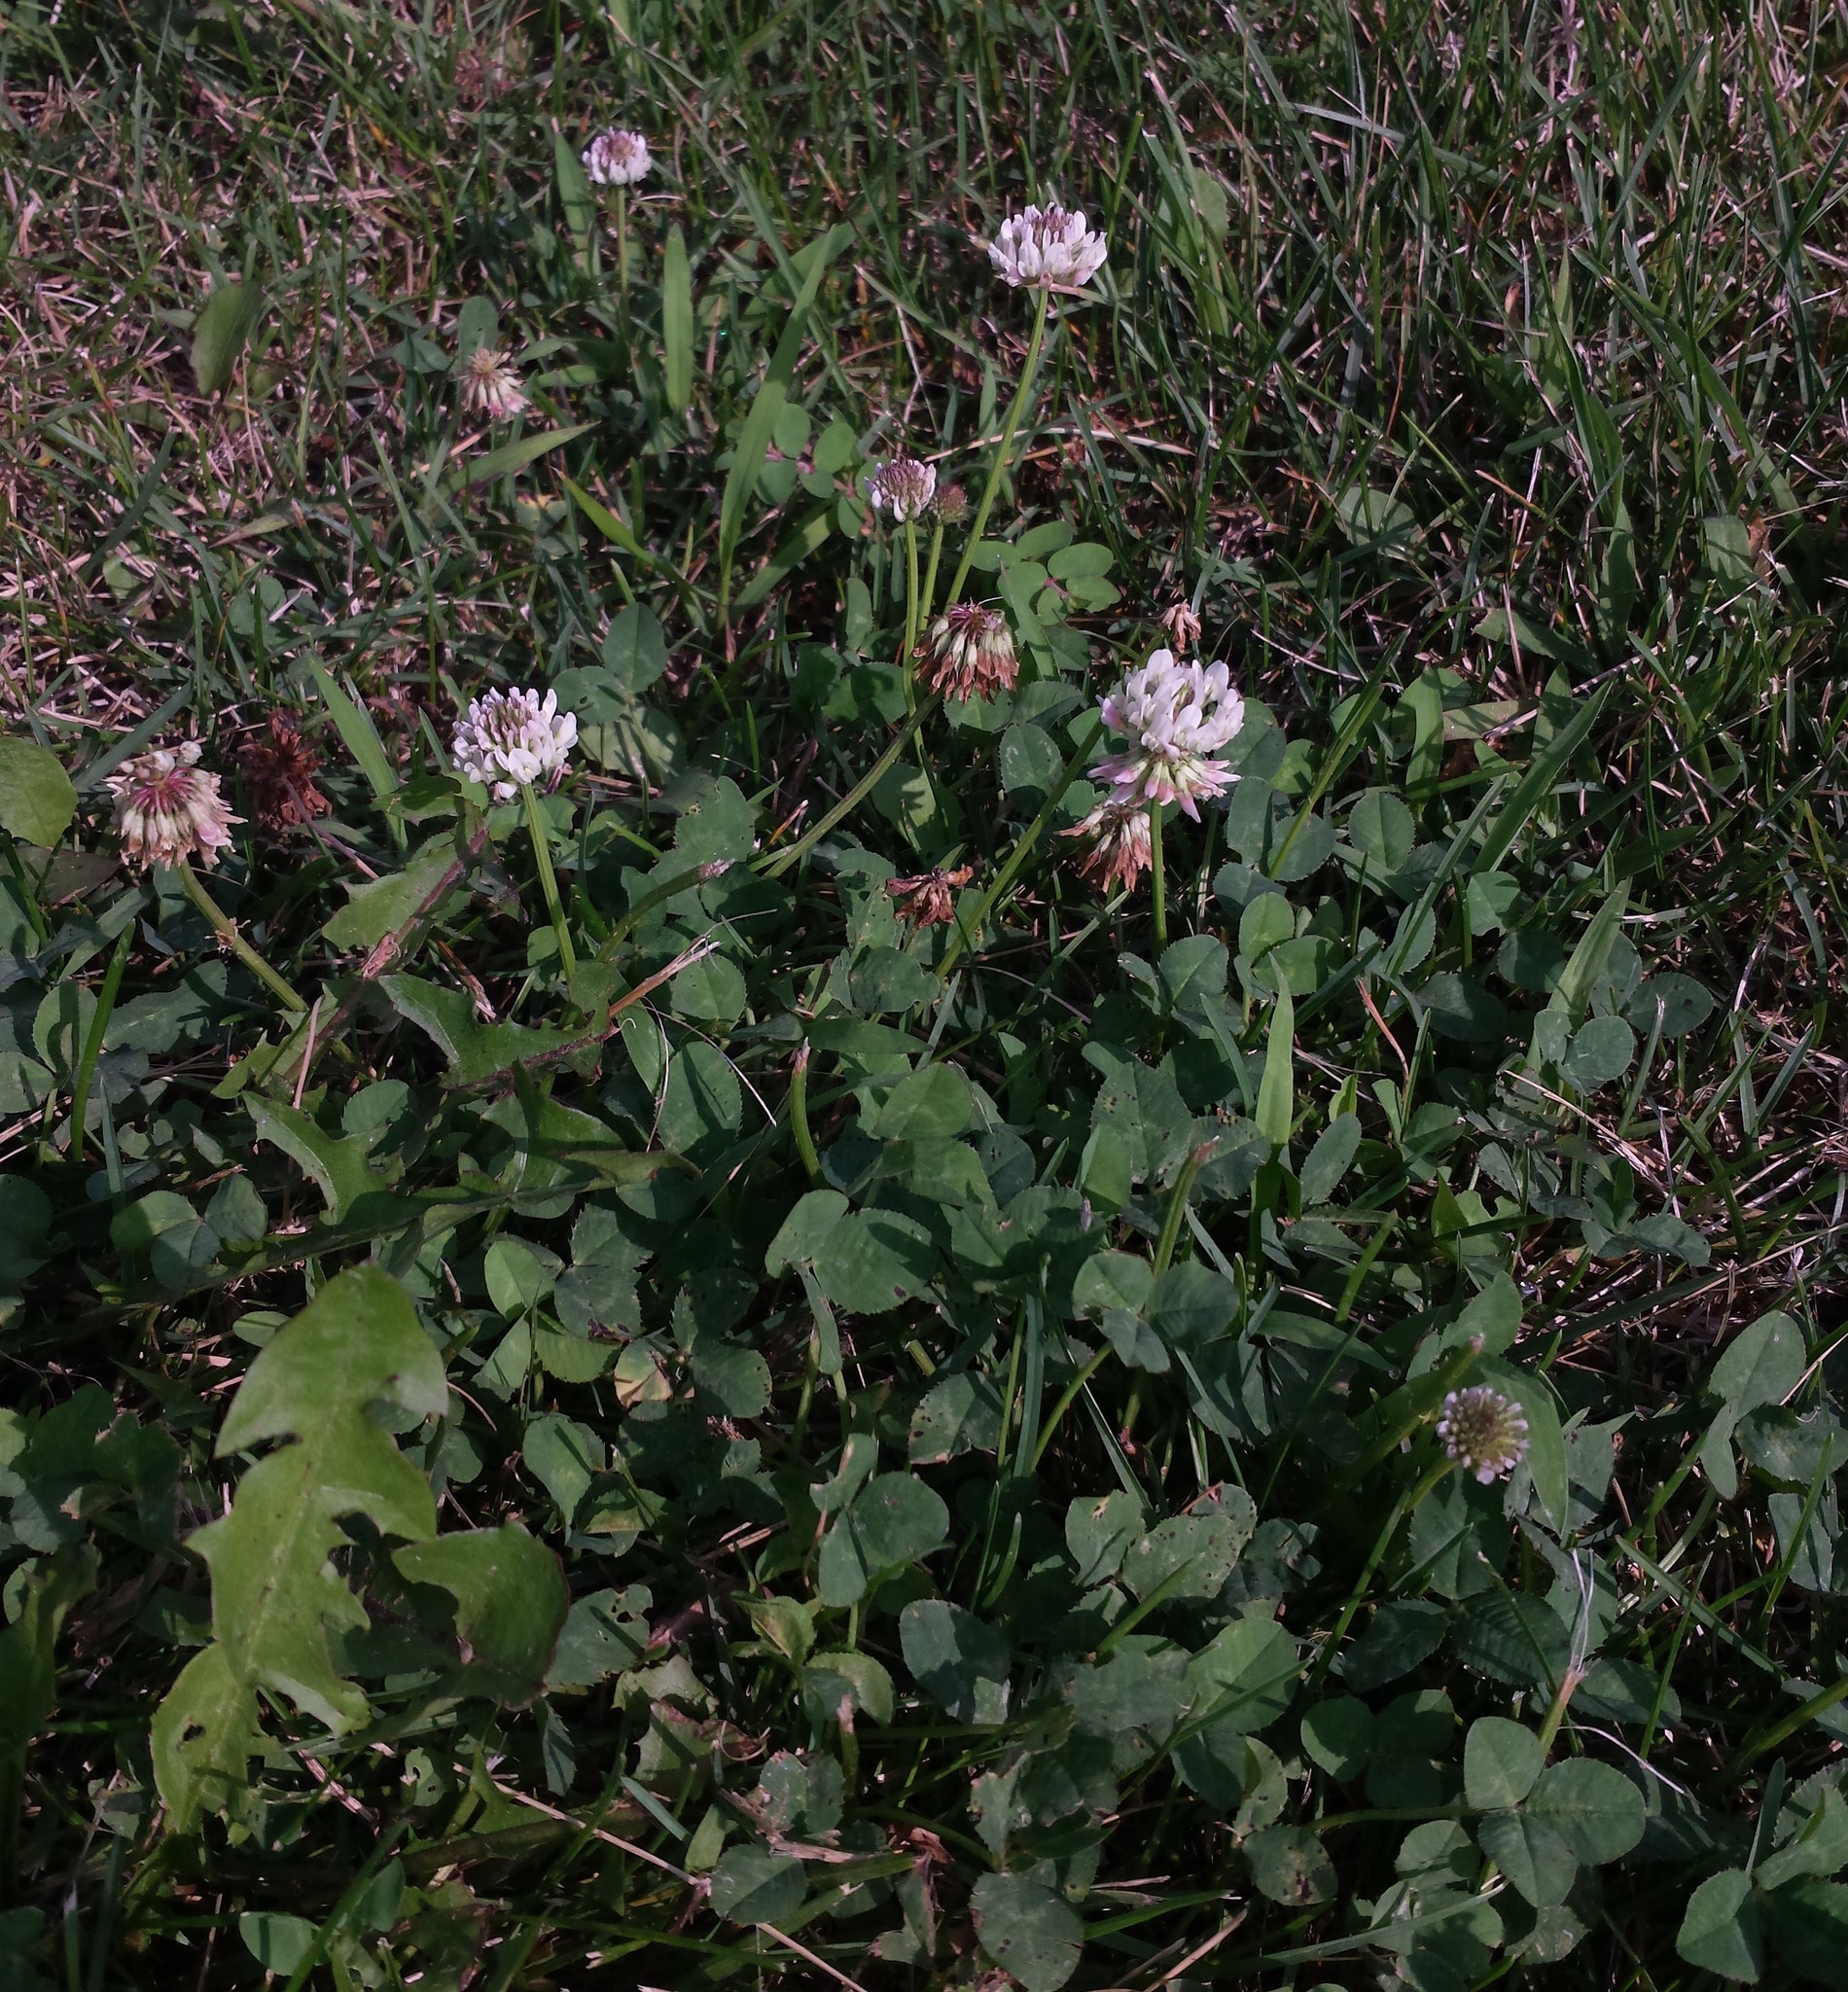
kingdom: Plantae
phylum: Tracheophyta
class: Magnoliopsida
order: Fabales
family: Fabaceae
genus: Trifolium
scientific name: Trifolium repens
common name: White clover
